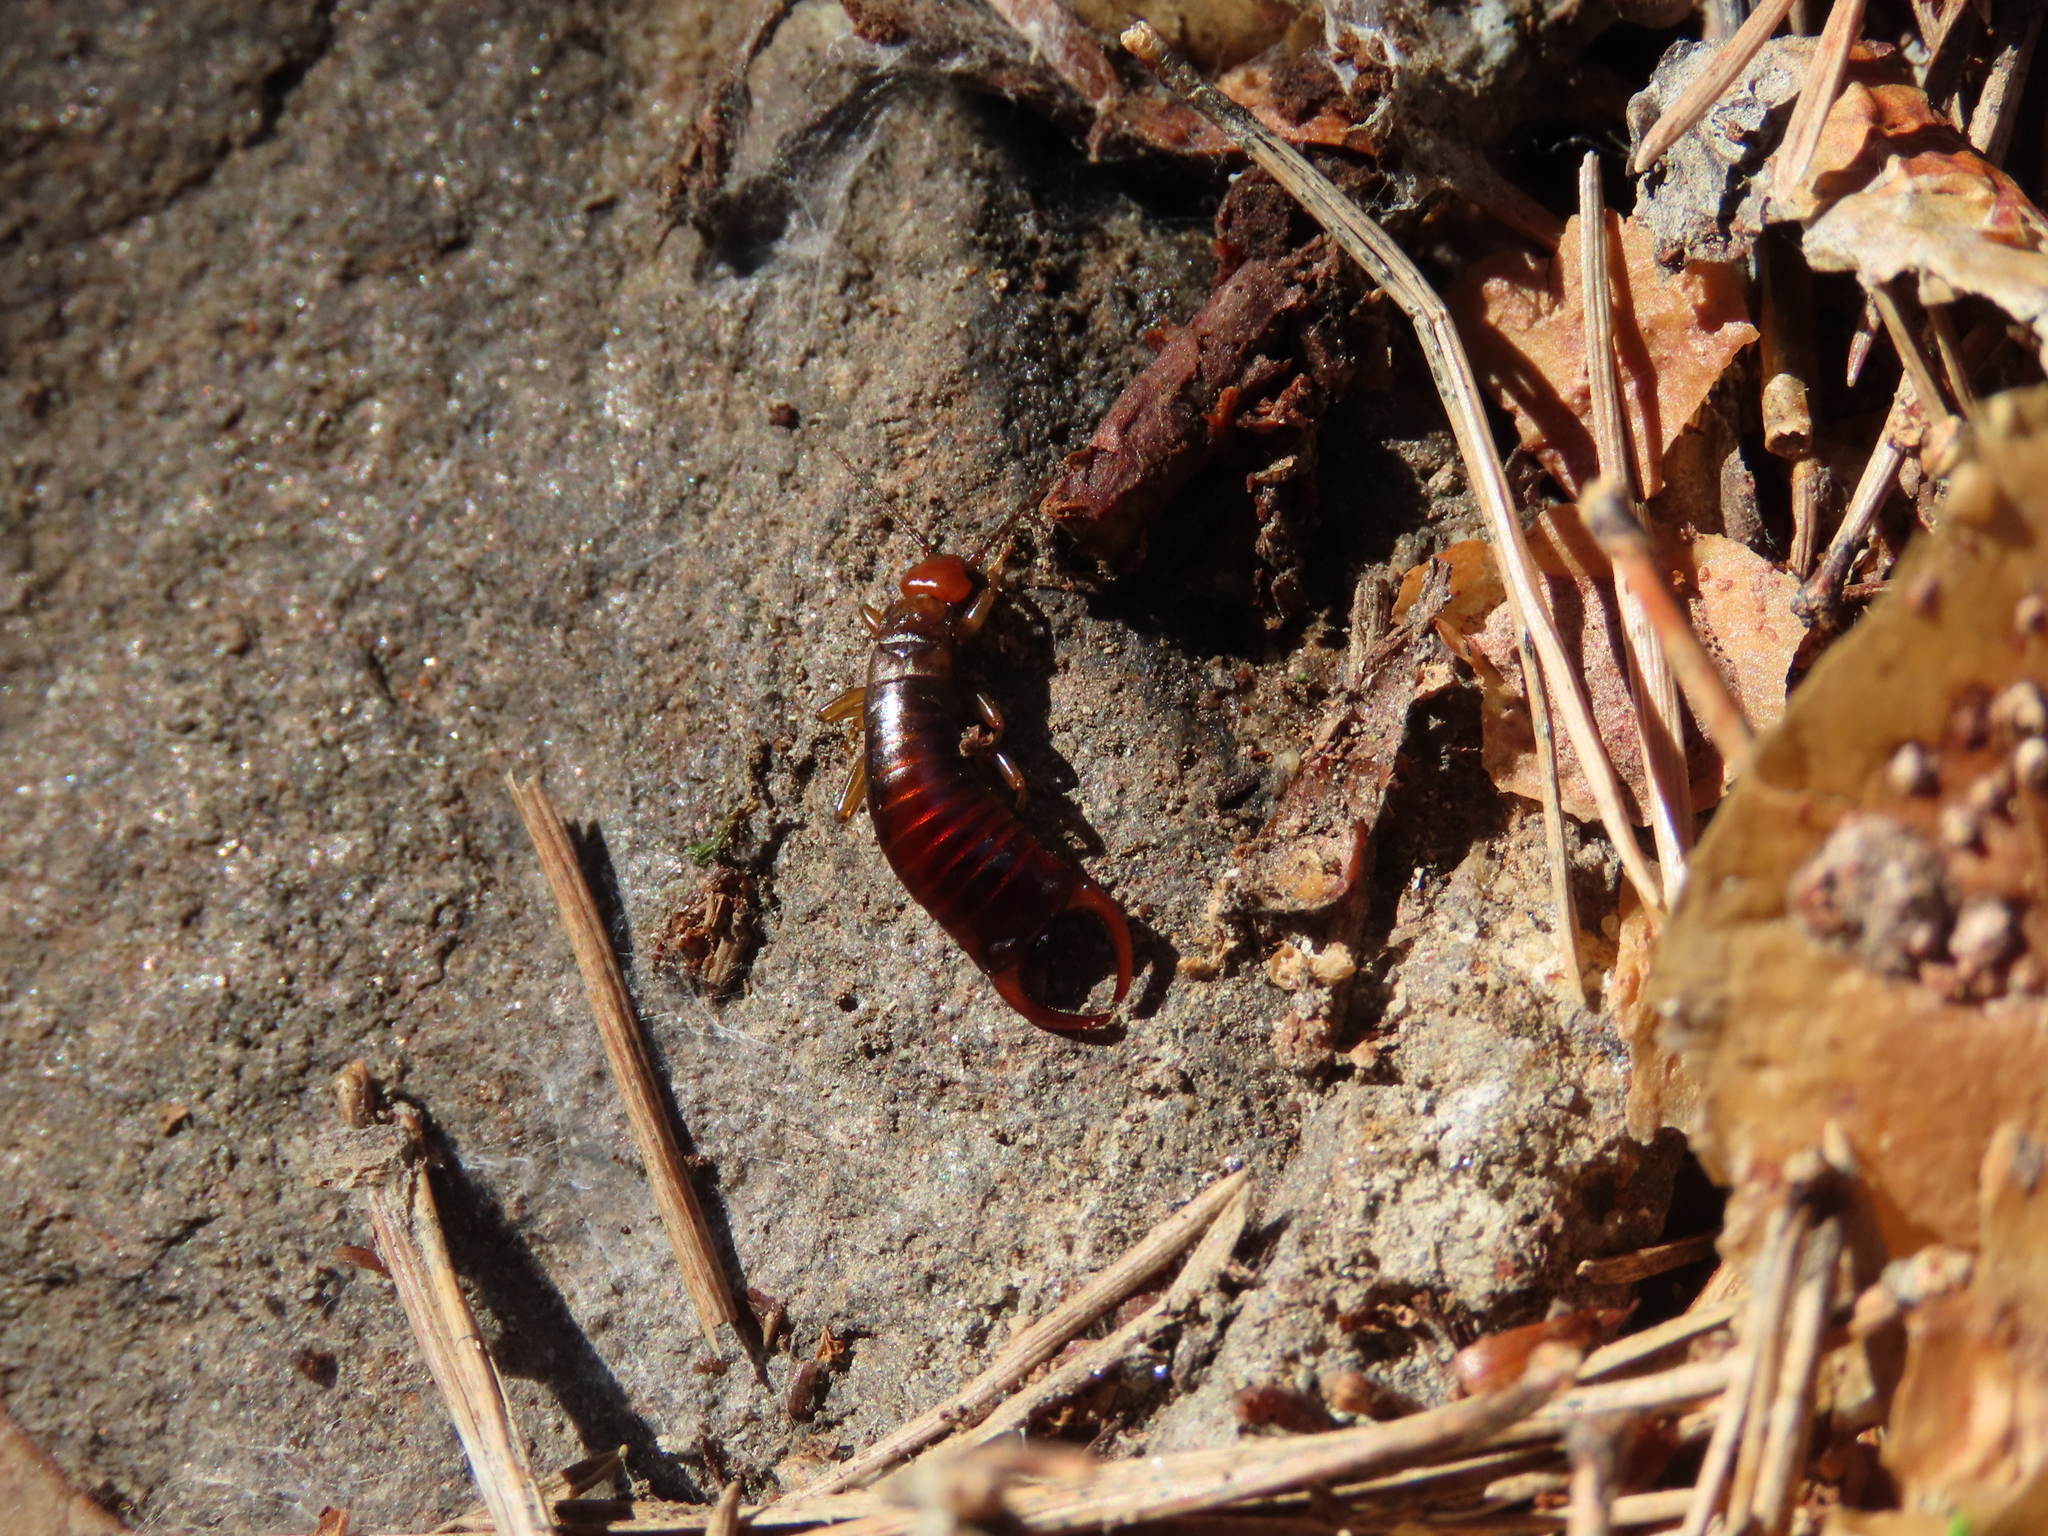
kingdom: Animalia
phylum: Arthropoda
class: Insecta
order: Dermaptera
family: Forficulidae
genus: Mesochelidura
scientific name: Mesochelidura bolivari
